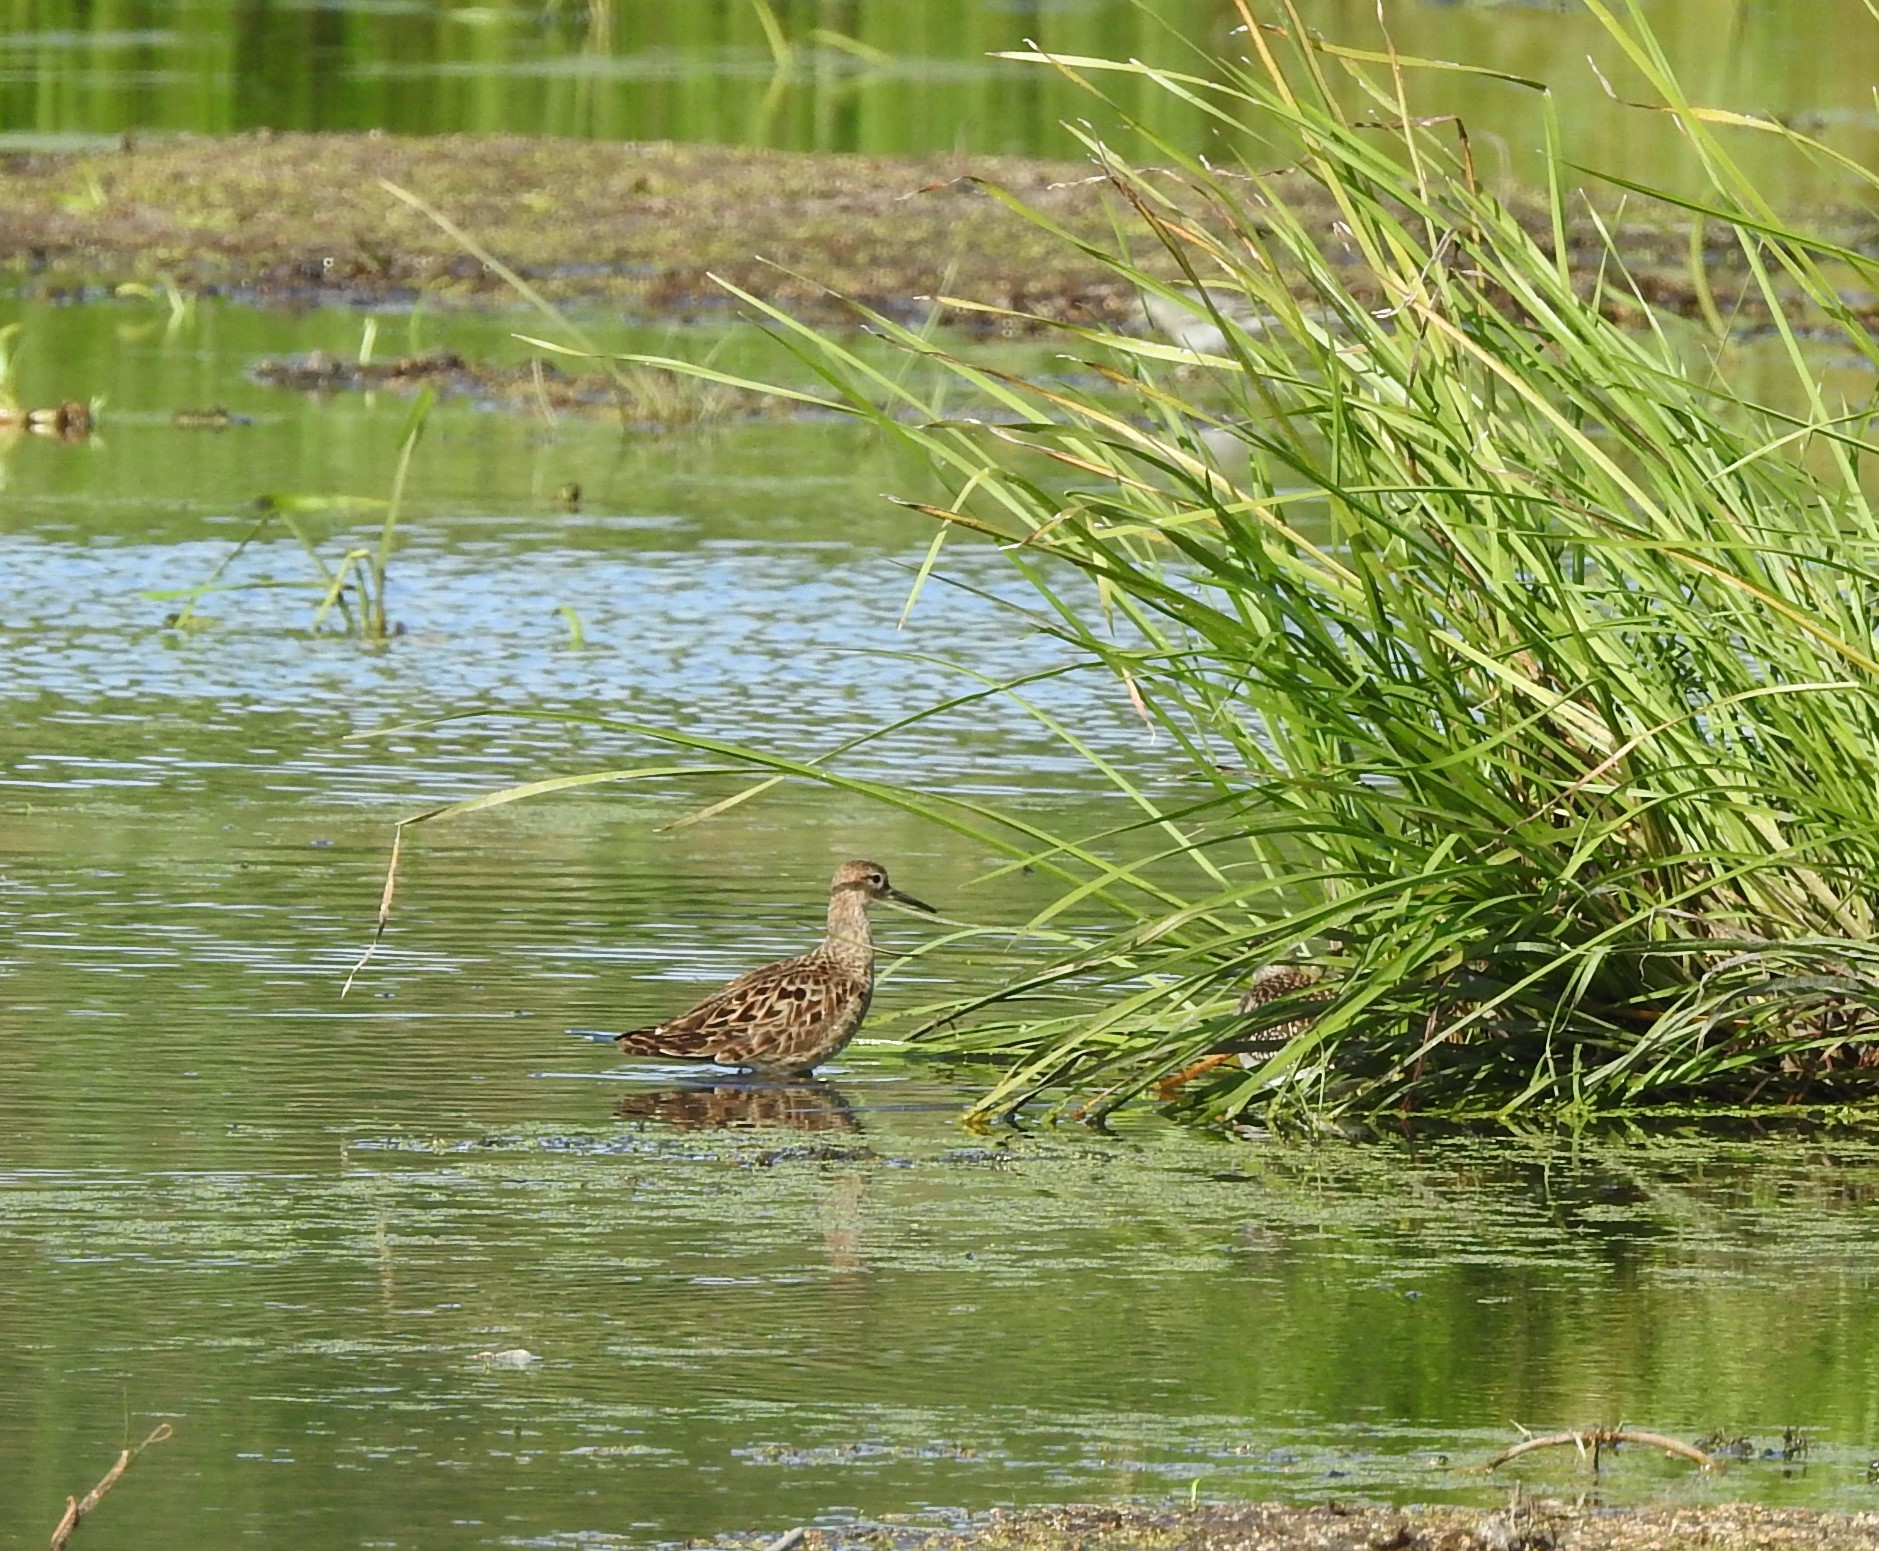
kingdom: Animalia
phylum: Chordata
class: Aves
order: Charadriiformes
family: Scolopacidae
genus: Calidris
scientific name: Calidris pugnax
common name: Ruff
